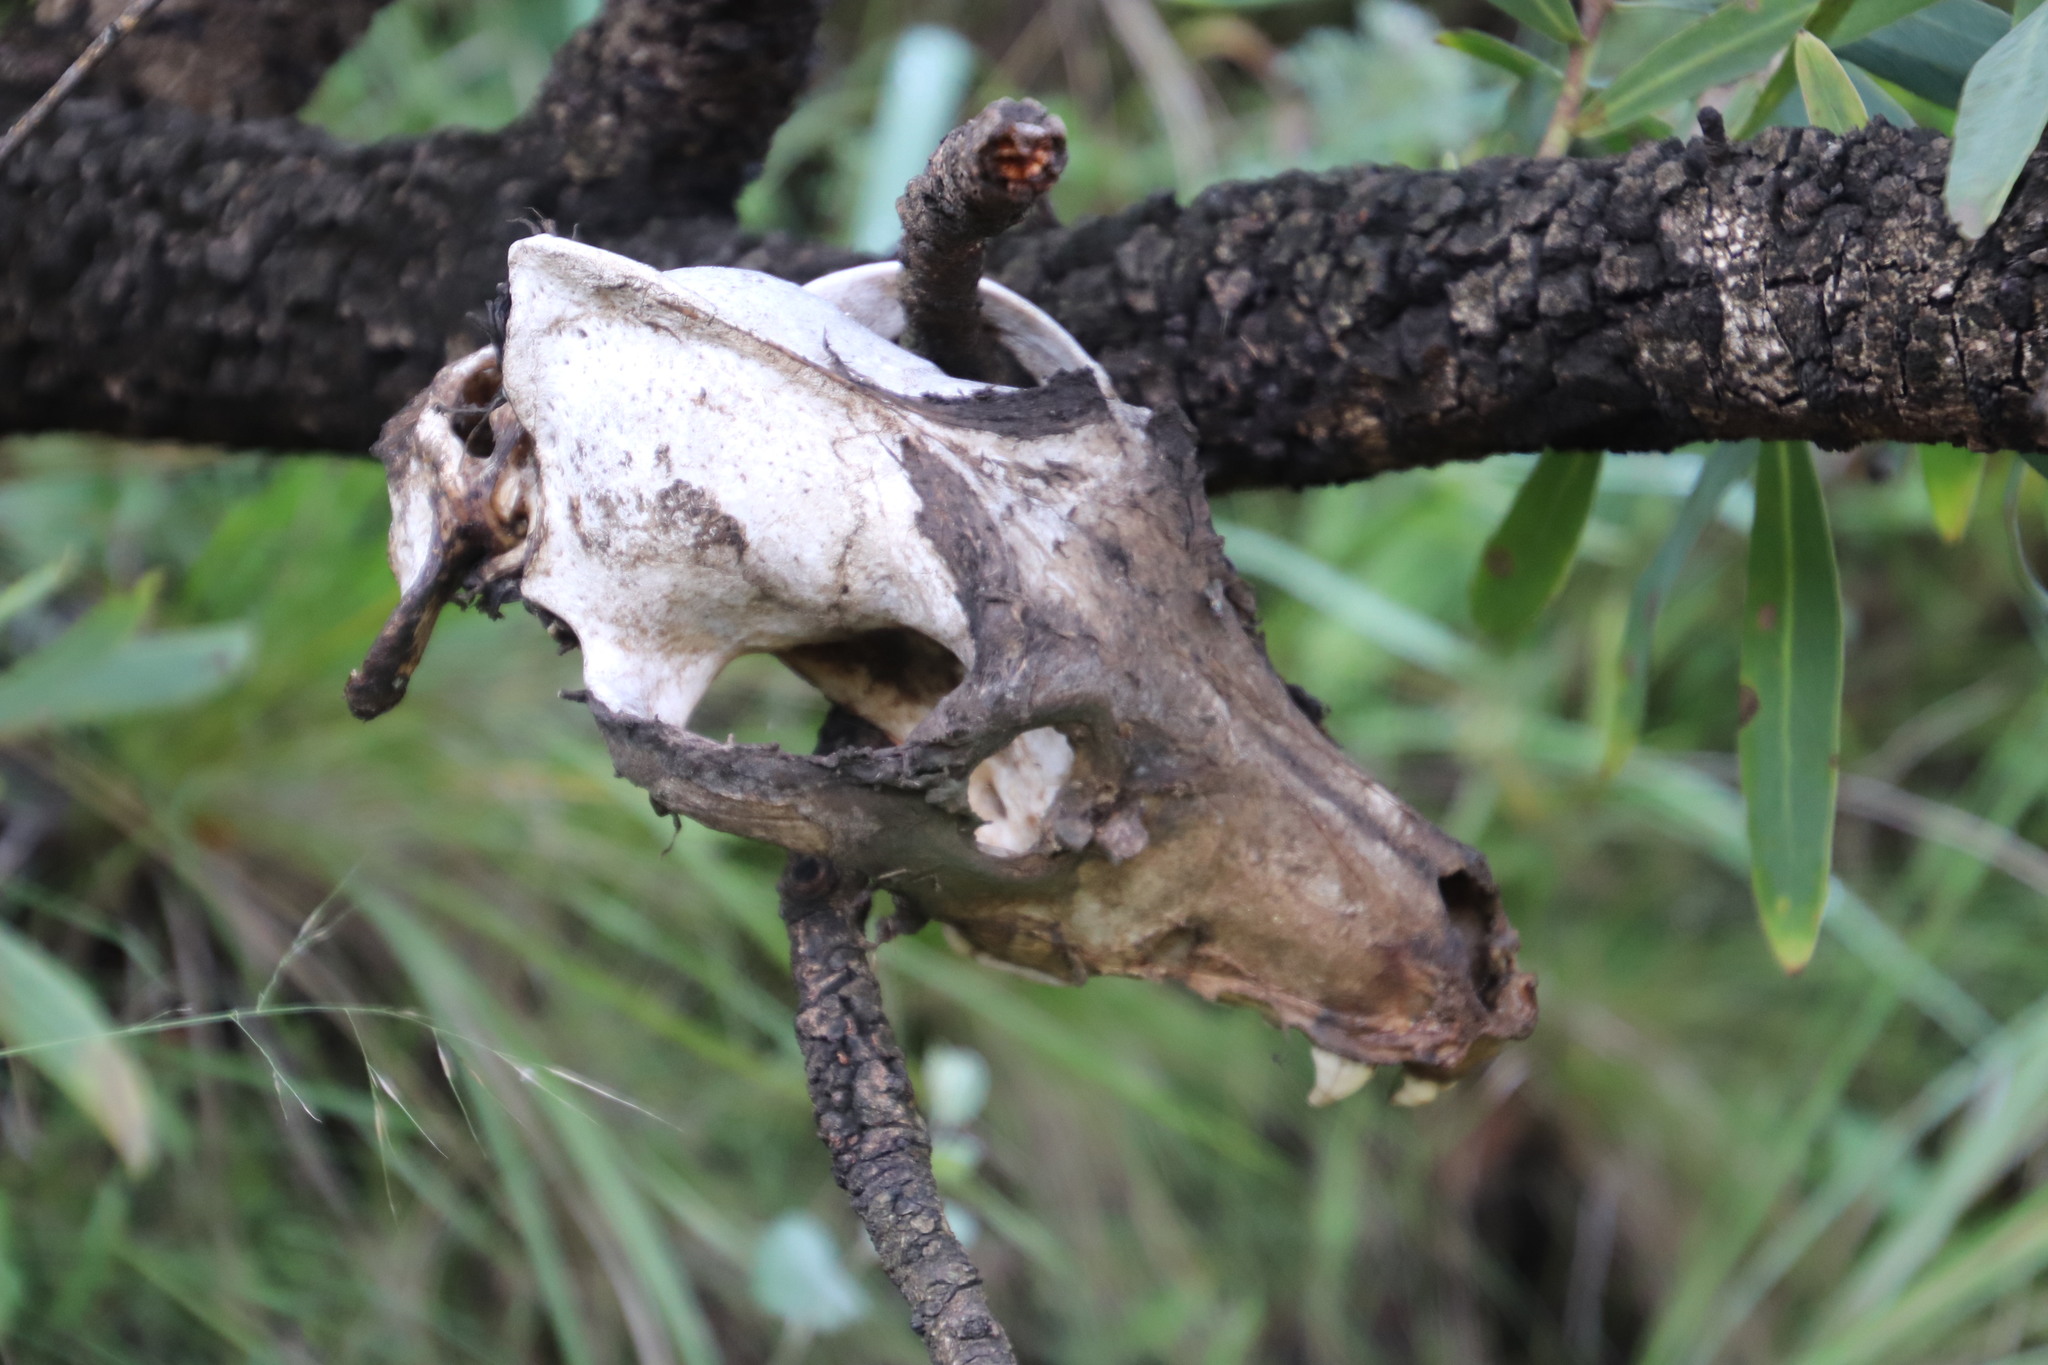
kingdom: Animalia
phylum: Chordata
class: Mammalia
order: Carnivora
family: Canidae
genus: Canis
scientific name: Canis lupus
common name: Gray wolf
